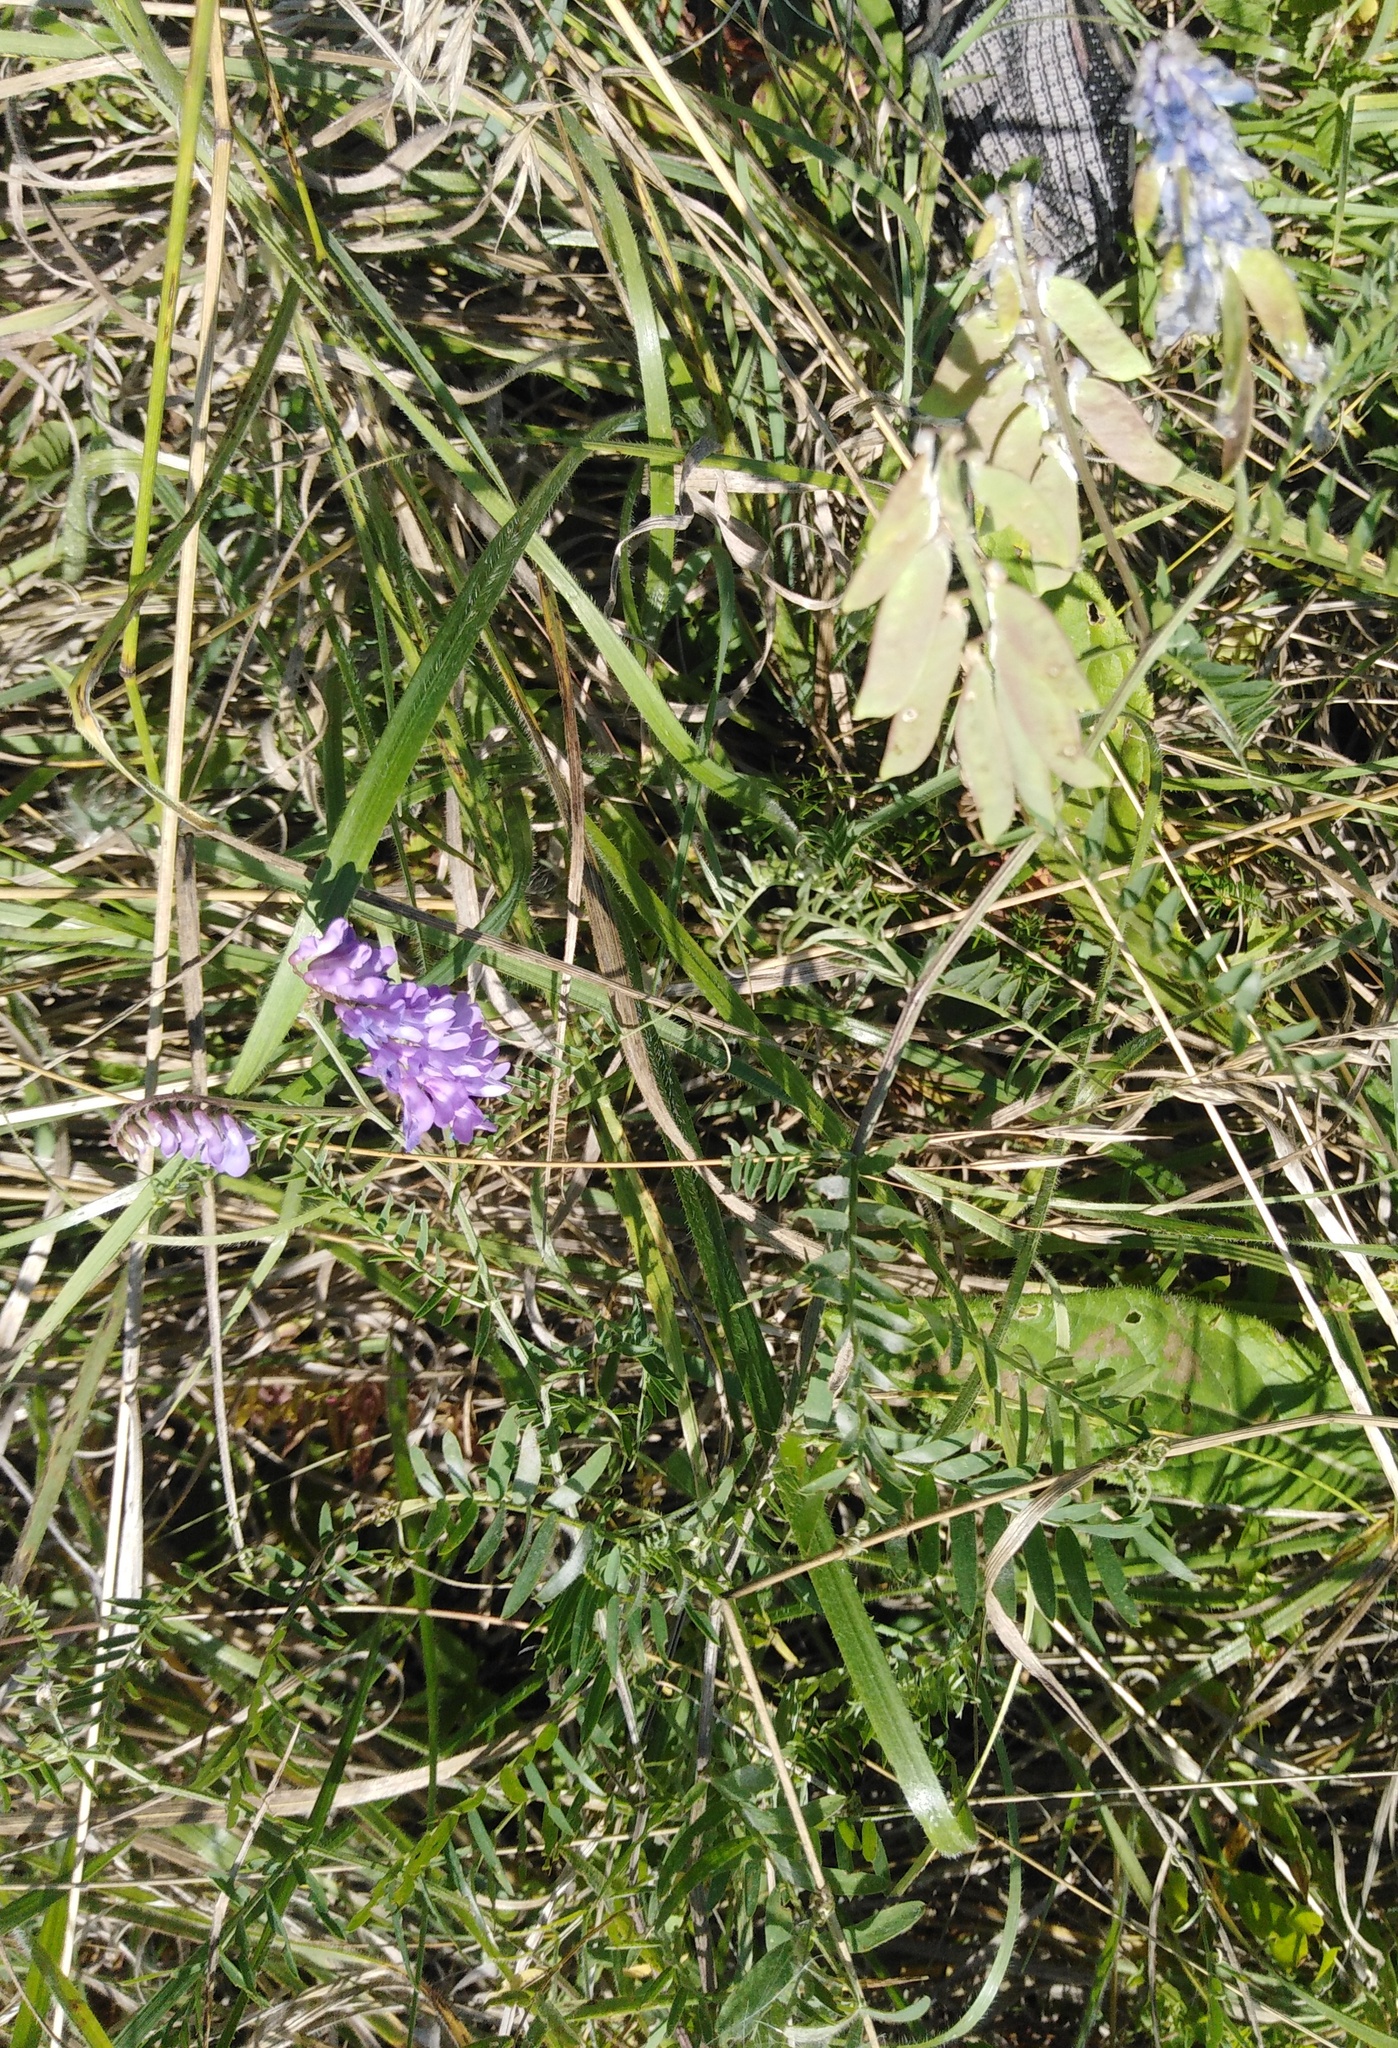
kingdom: Plantae
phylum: Tracheophyta
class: Magnoliopsida
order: Fabales
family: Fabaceae
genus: Vicia
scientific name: Vicia cracca
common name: Bird vetch
